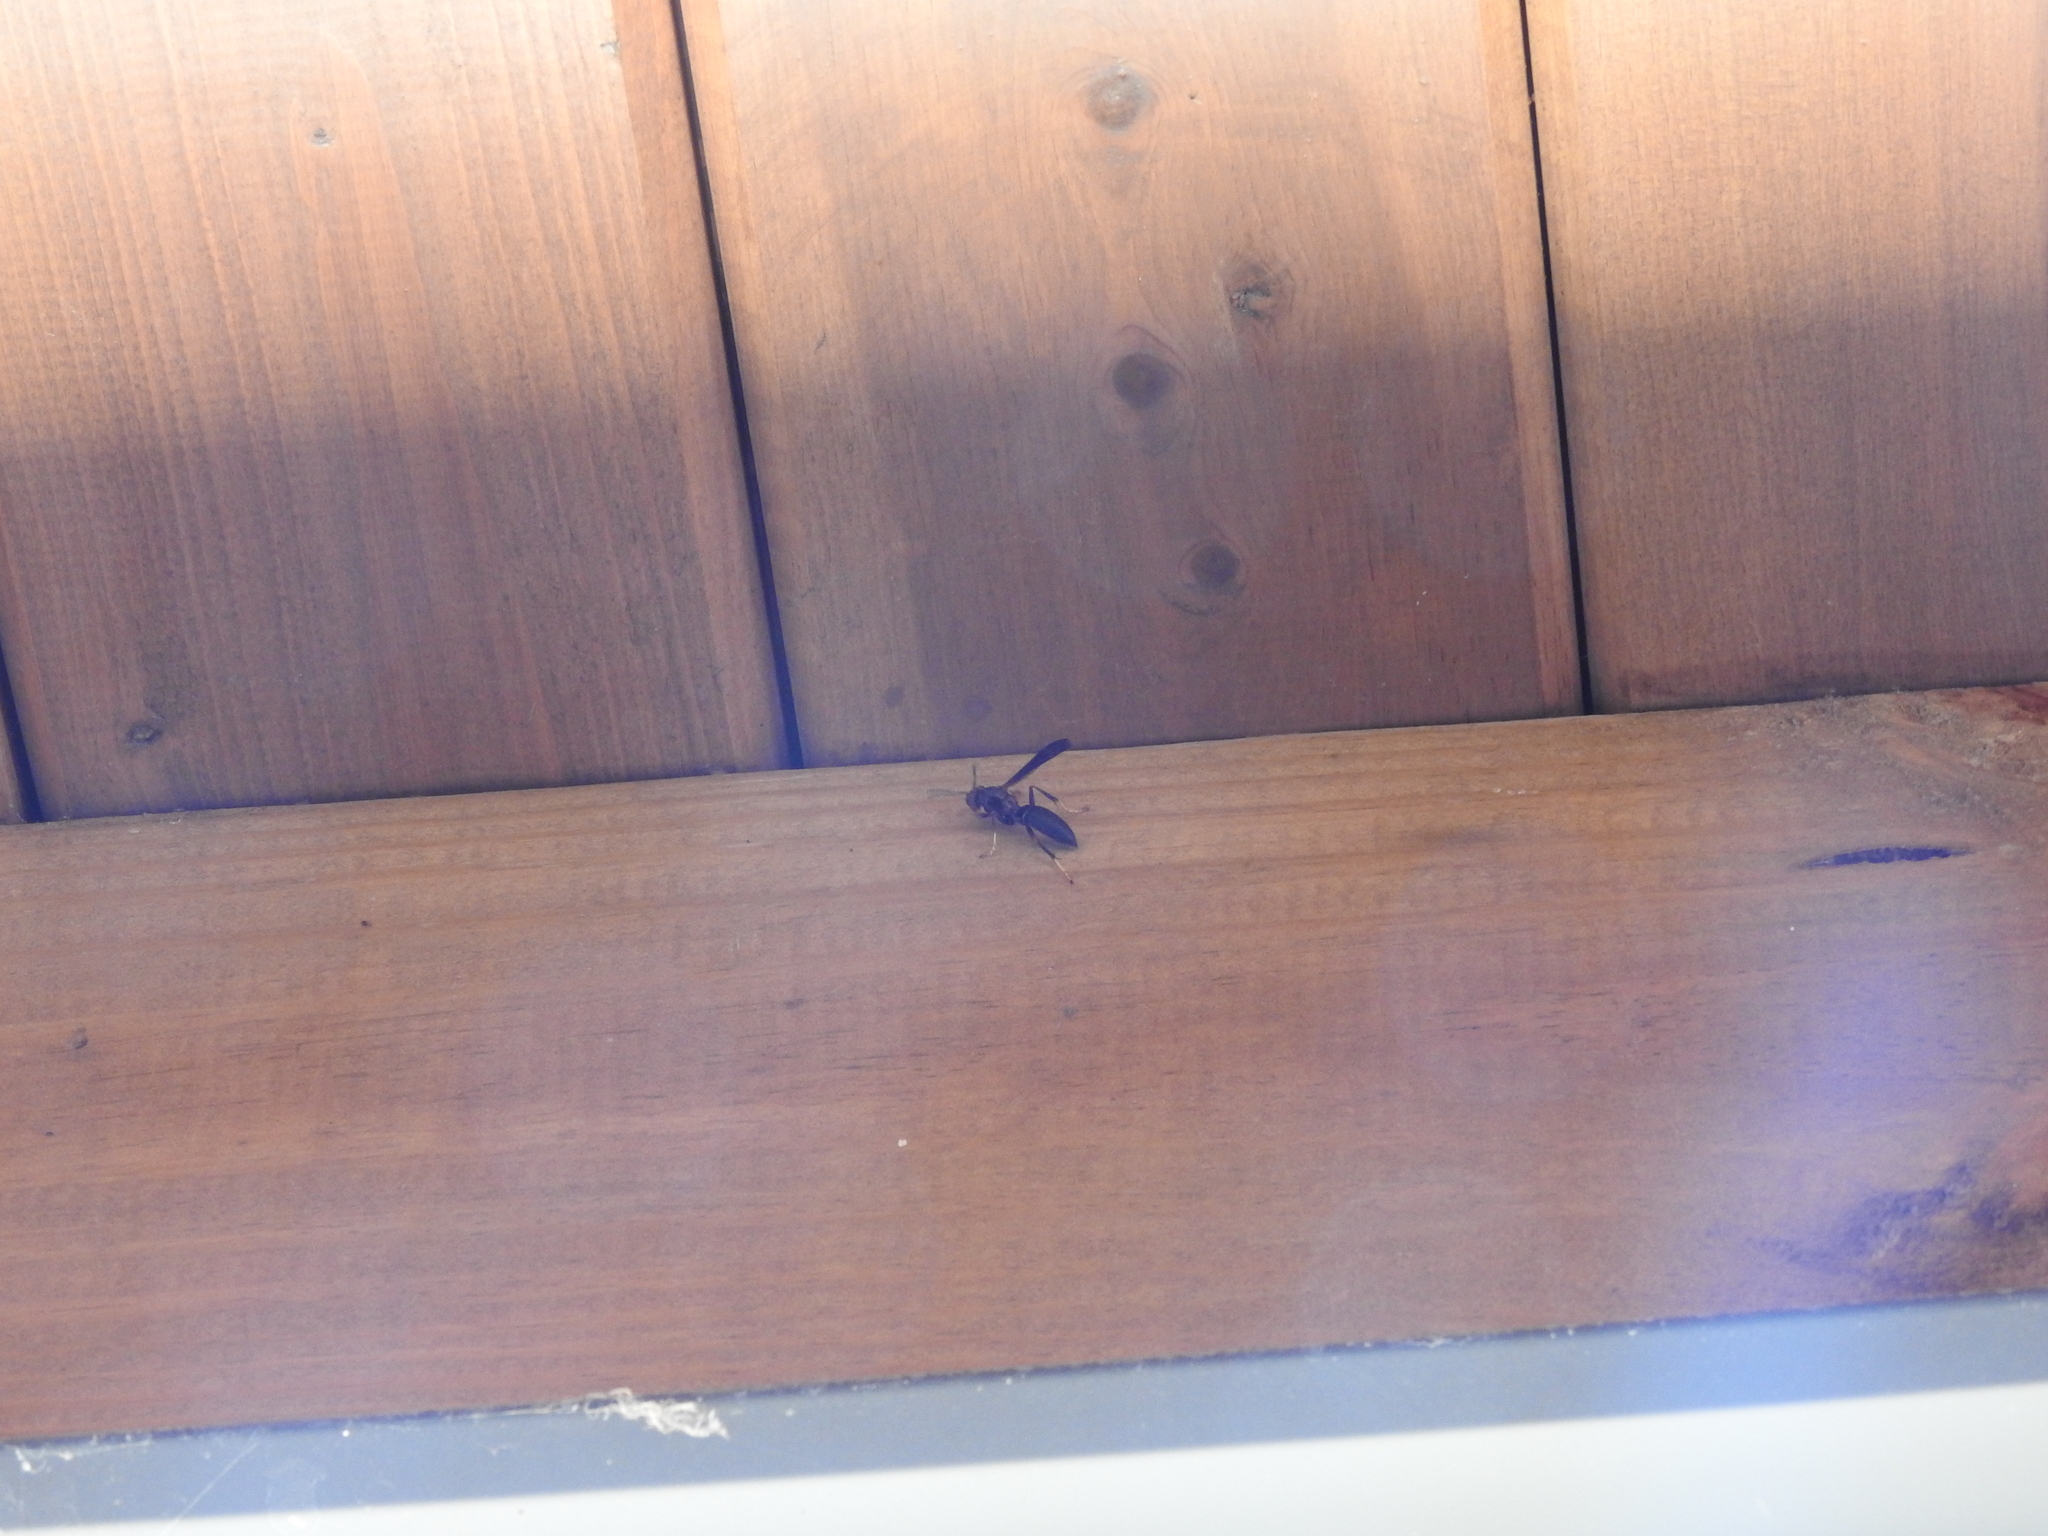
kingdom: Animalia
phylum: Arthropoda
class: Insecta
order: Hymenoptera
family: Vespidae
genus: Fuscopolistes
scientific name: Fuscopolistes
